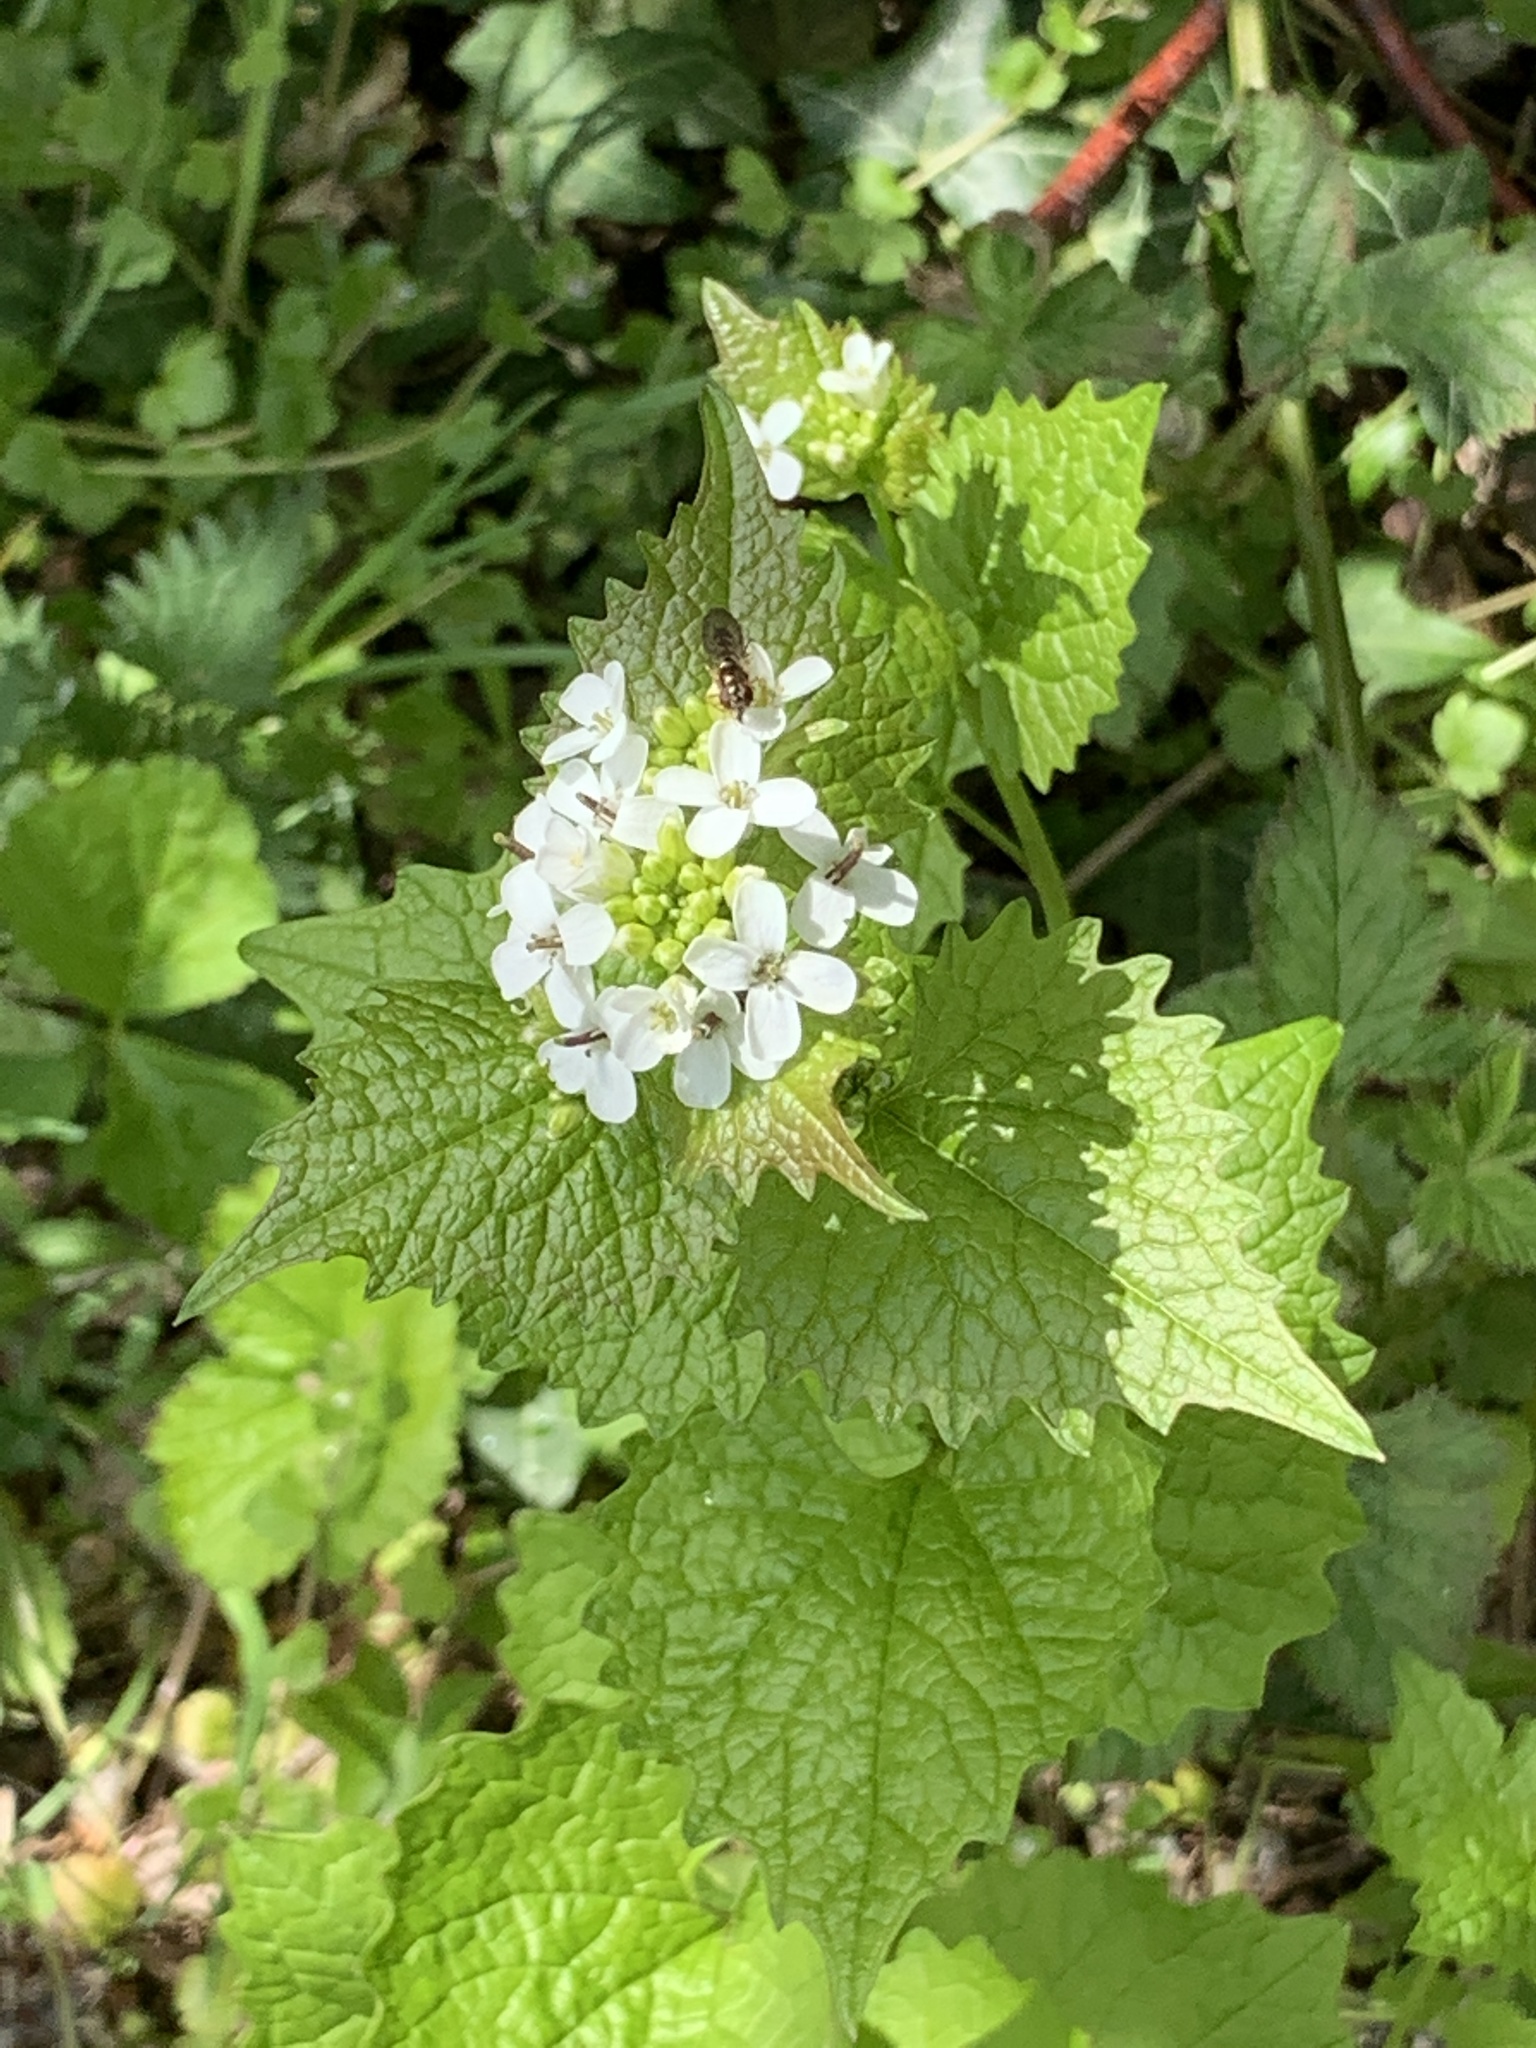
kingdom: Plantae
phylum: Tracheophyta
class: Magnoliopsida
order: Brassicales
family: Brassicaceae
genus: Alliaria
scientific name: Alliaria petiolata
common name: Garlic mustard
